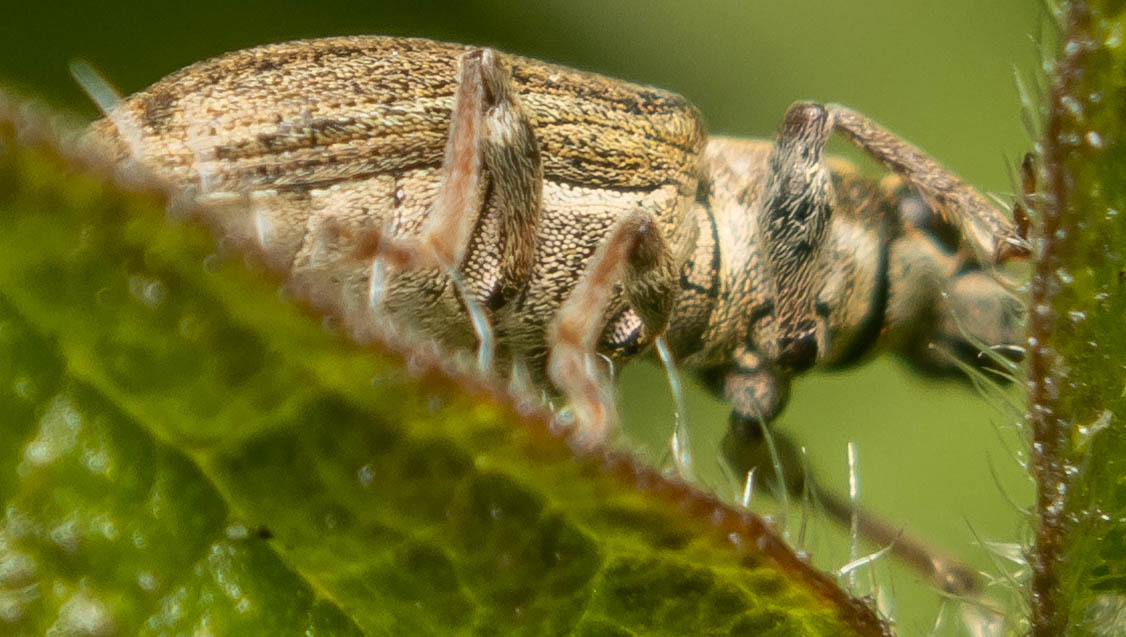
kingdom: Animalia
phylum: Arthropoda
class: Insecta
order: Coleoptera
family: Curculionidae
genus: Sitona
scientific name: Sitona lineatus
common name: Weevil
